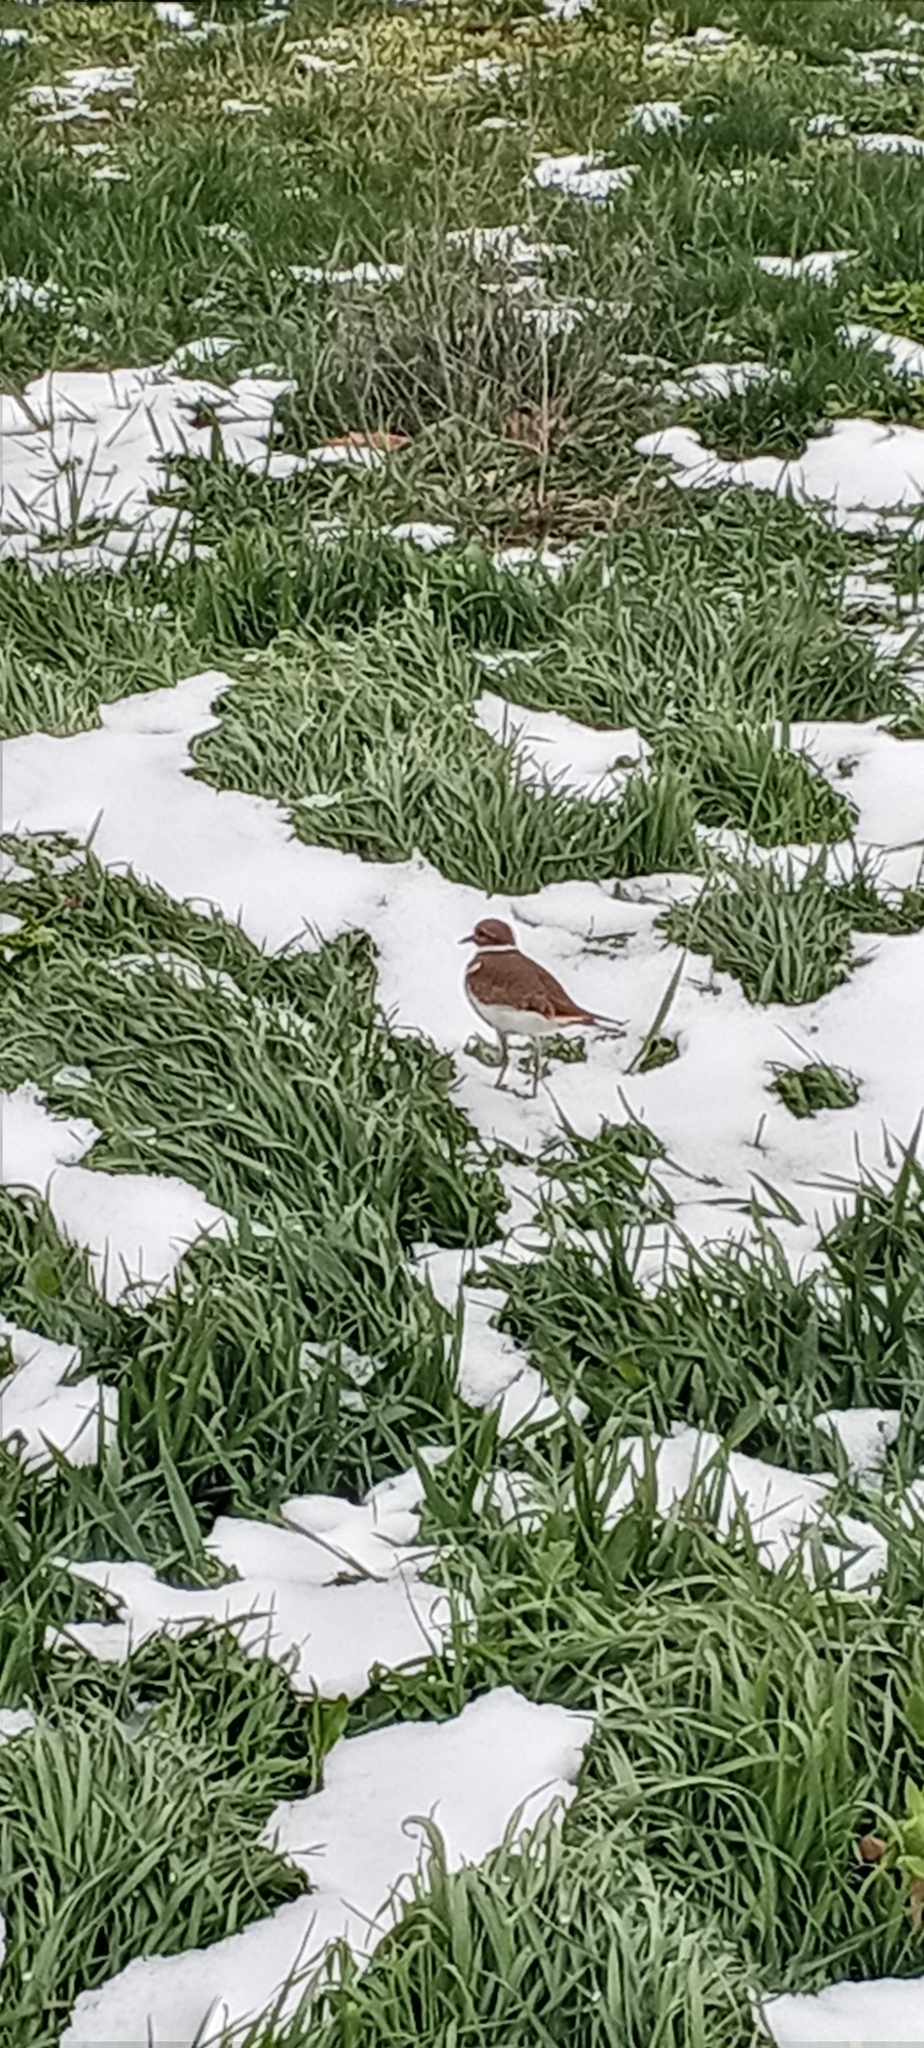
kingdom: Animalia
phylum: Chordata
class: Aves
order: Charadriiformes
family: Charadriidae
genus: Charadrius
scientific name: Charadrius vociferus
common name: Killdeer
